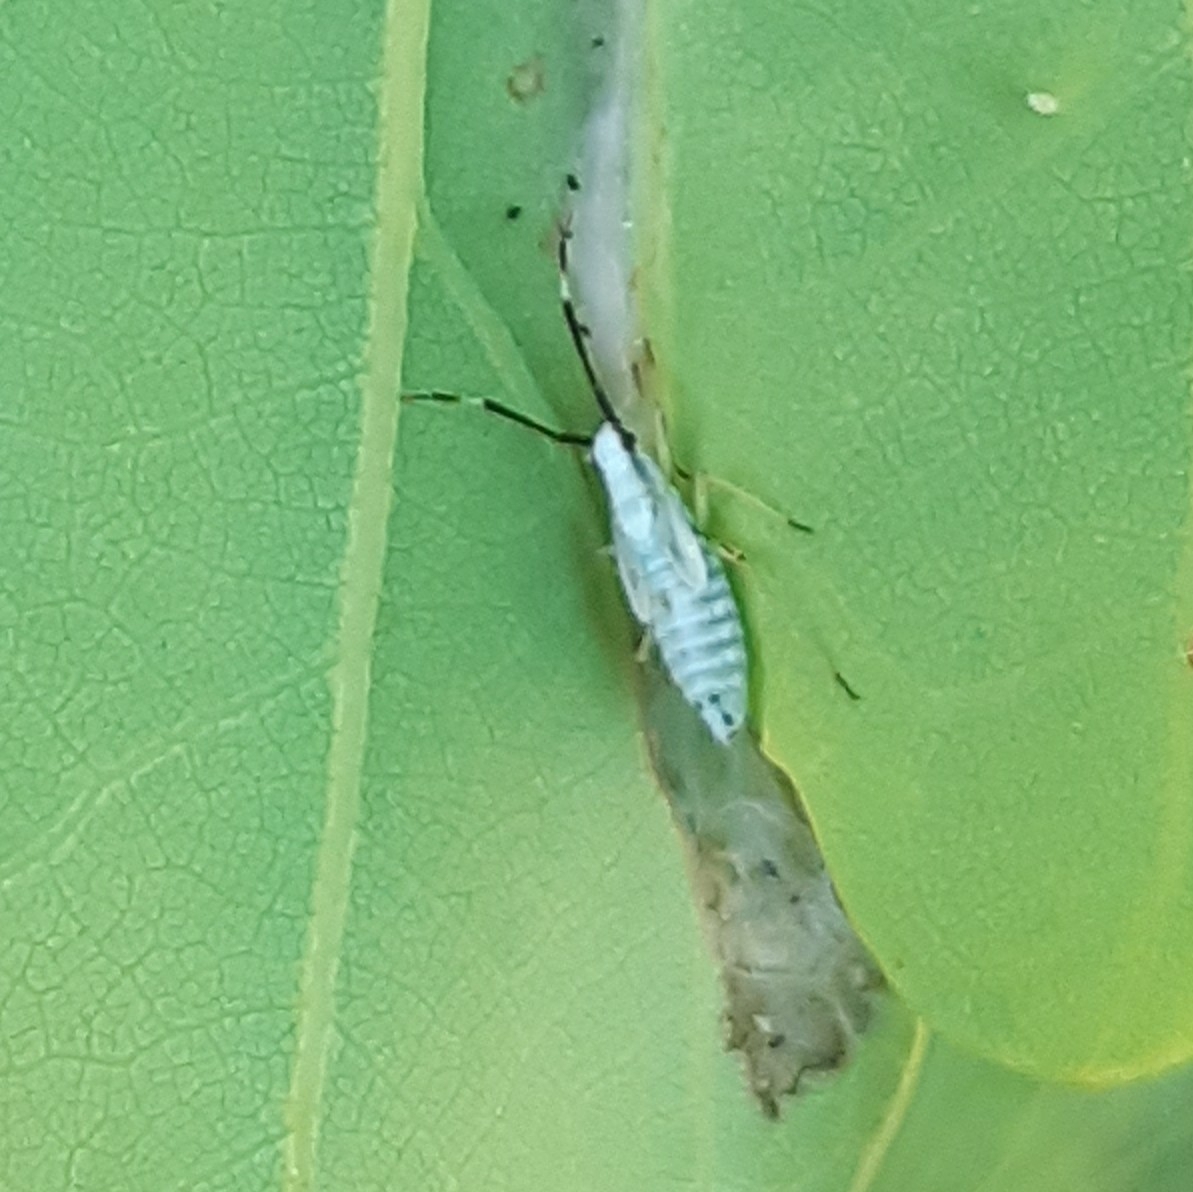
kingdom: Animalia
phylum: Arthropoda
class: Insecta
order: Hemiptera
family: Miridae
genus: Cyllecoris
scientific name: Cyllecoris histrionius
